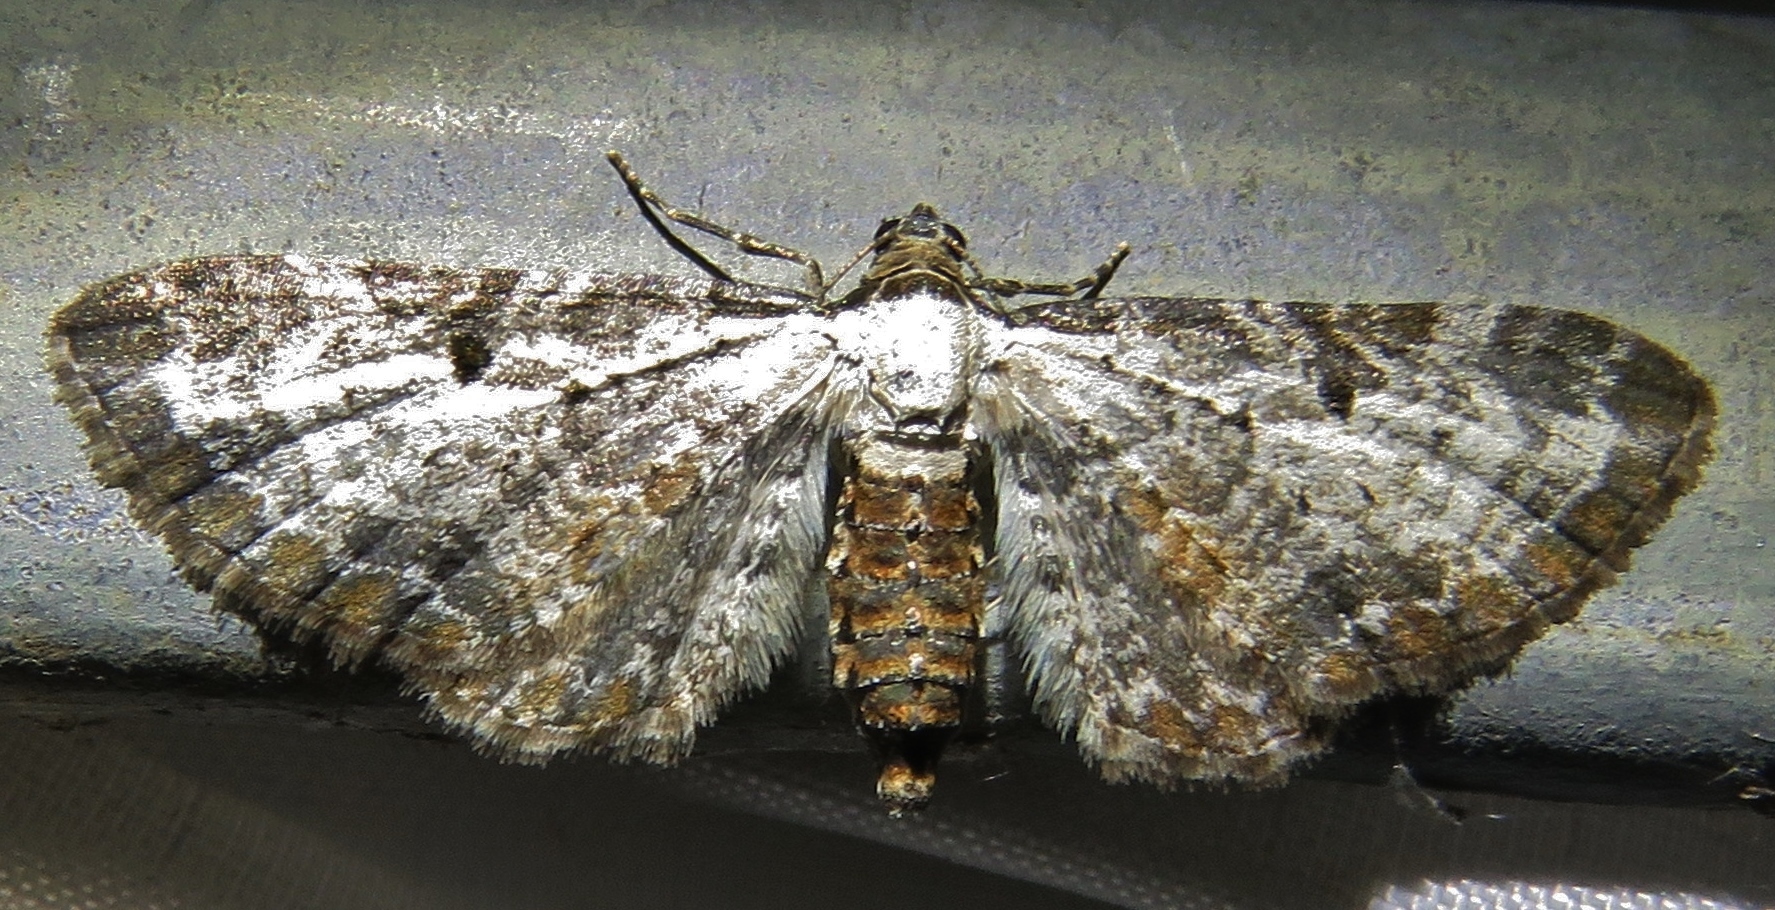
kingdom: Animalia
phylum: Arthropoda
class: Insecta
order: Lepidoptera
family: Geometridae
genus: Eupithecia
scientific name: Eupithecia succenturiata
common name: Bordered pug
